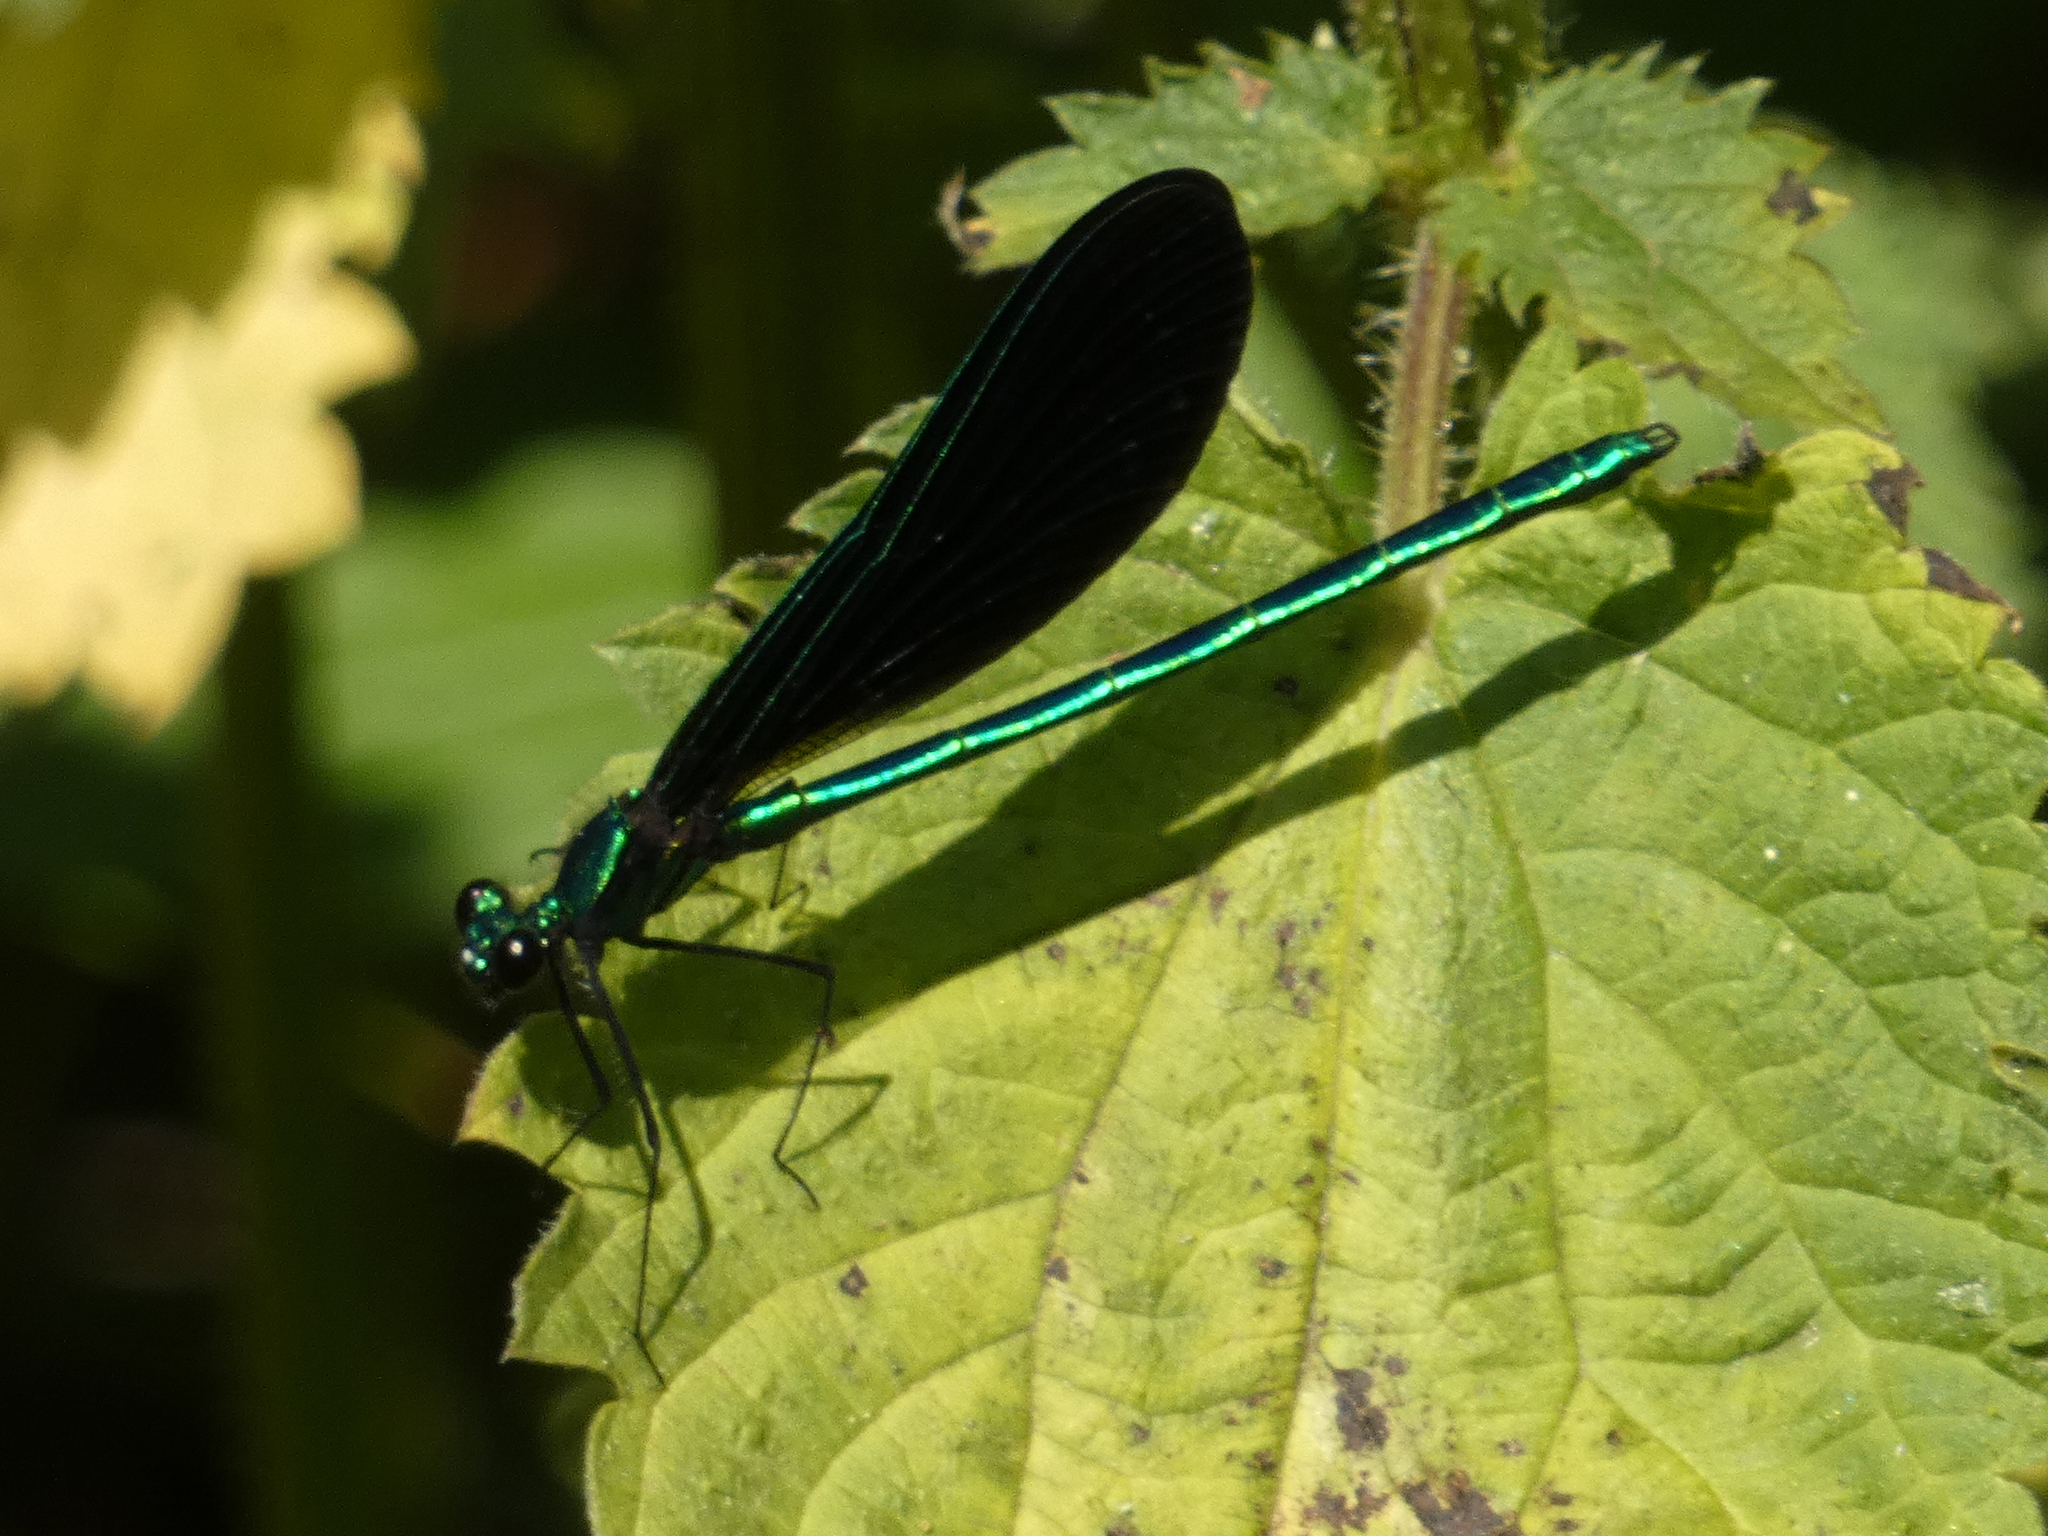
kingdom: Animalia
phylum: Arthropoda
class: Insecta
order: Odonata
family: Calopterygidae
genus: Calopteryx
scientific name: Calopteryx maculata
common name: Ebony jewelwing
